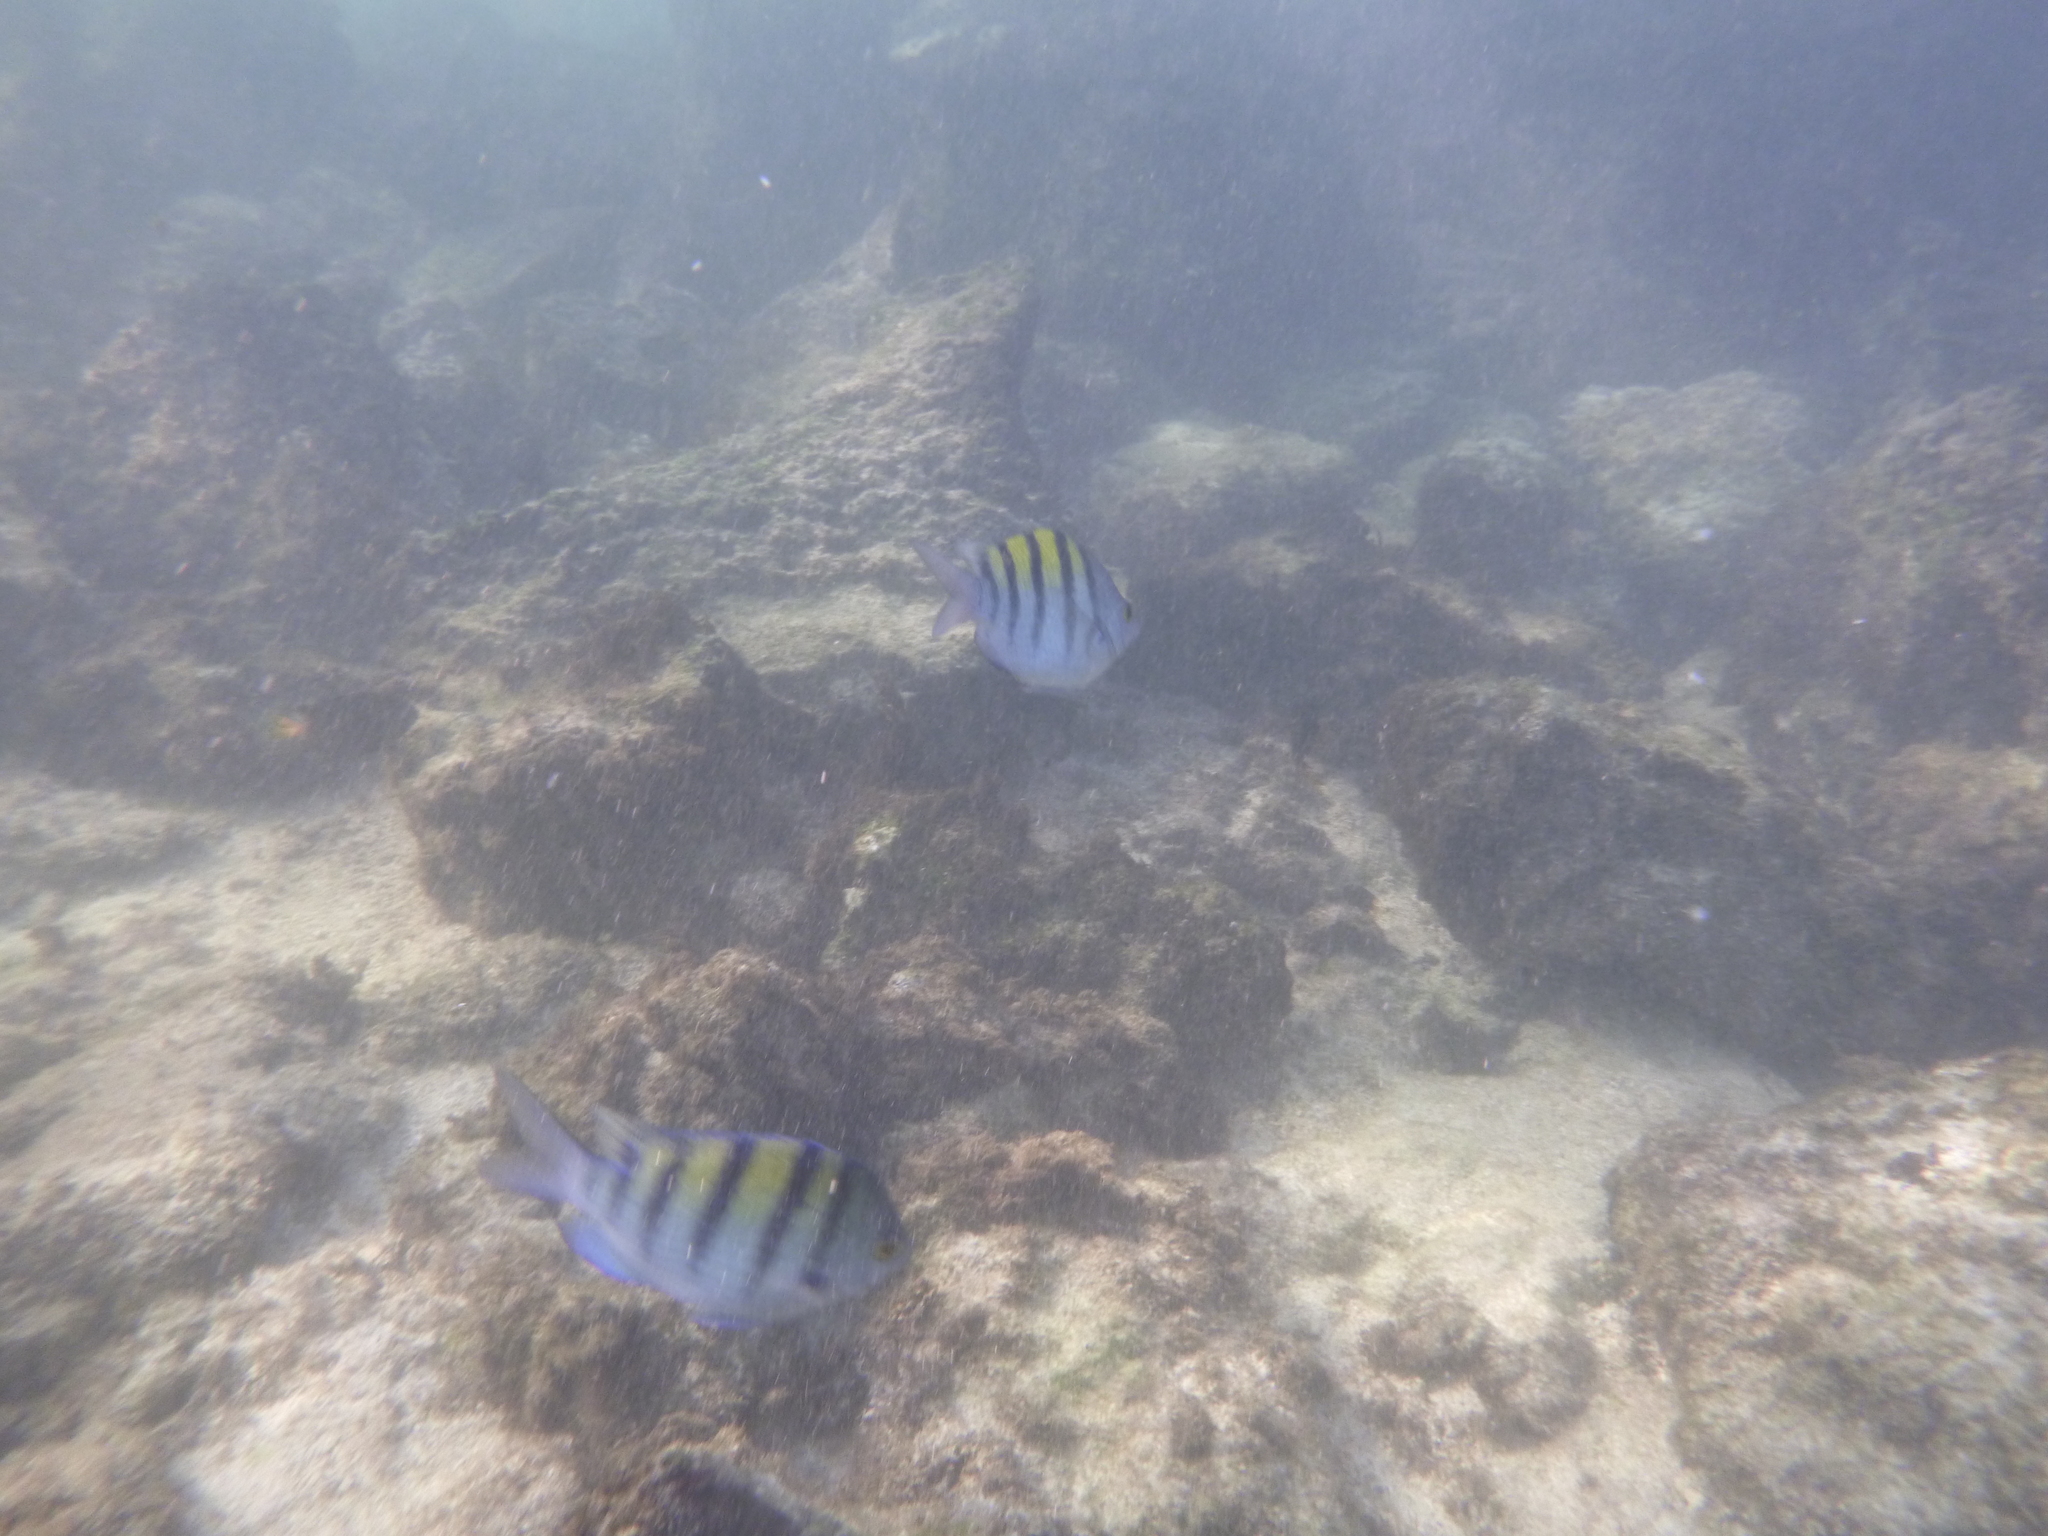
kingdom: Animalia
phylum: Chordata
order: Perciformes
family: Pomacentridae
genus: Abudefduf
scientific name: Abudefduf troschelii
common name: Panamic sergeant major
